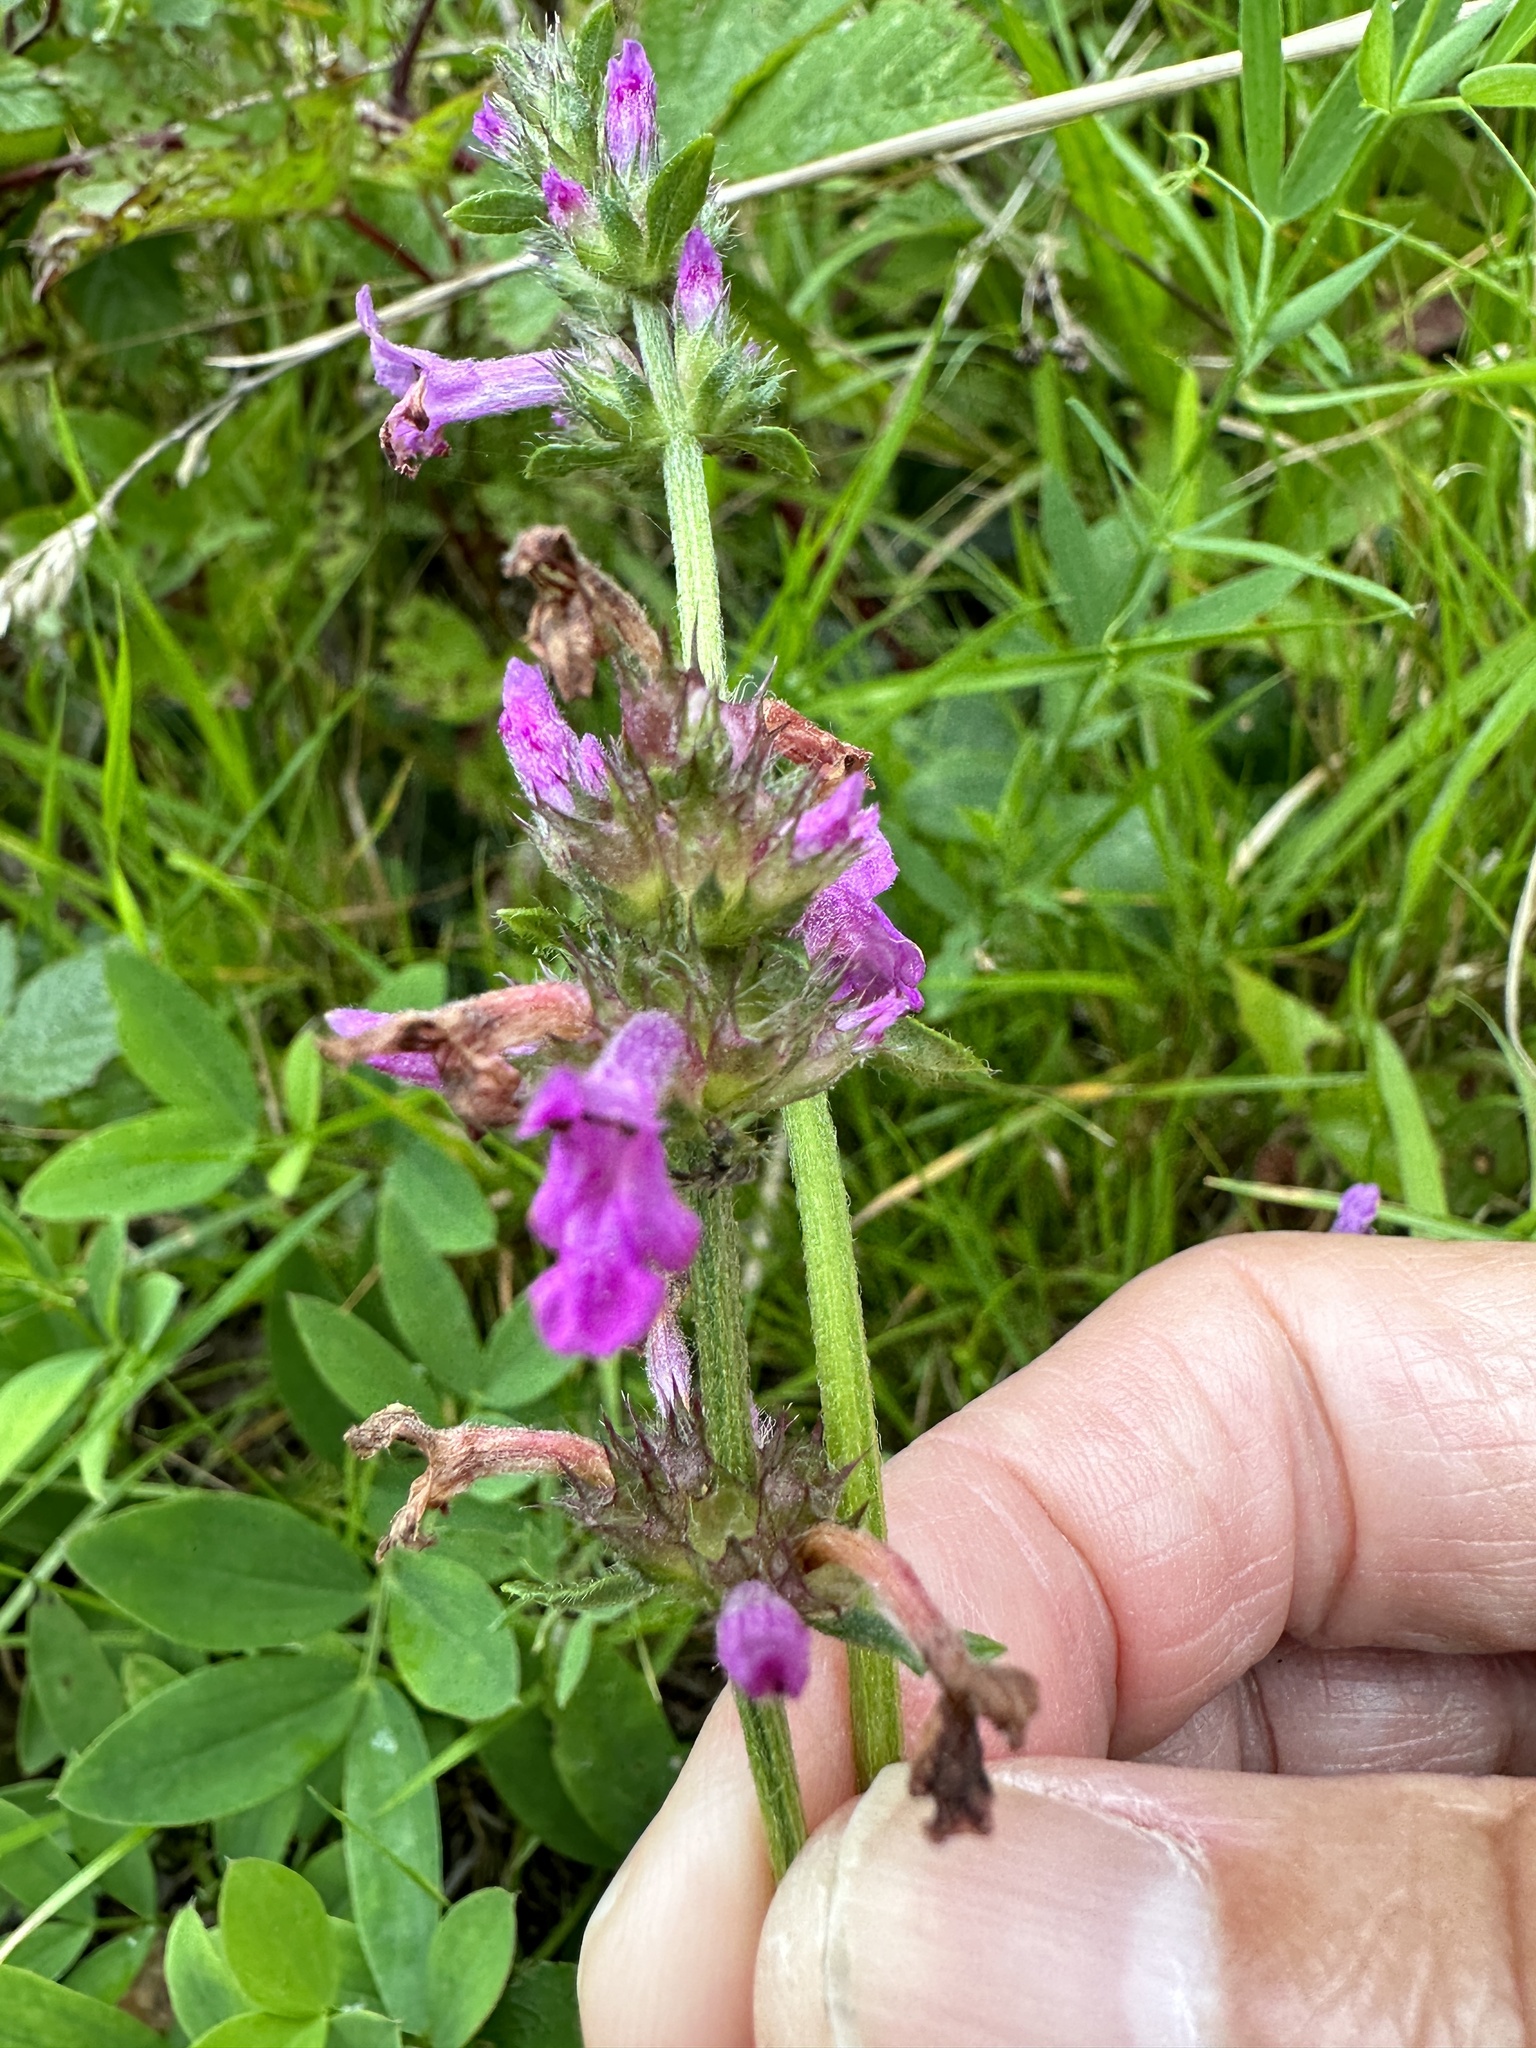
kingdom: Plantae
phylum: Tracheophyta
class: Magnoliopsida
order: Lamiales
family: Lamiaceae
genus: Betonica
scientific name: Betonica officinalis
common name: Bishop's-wort
